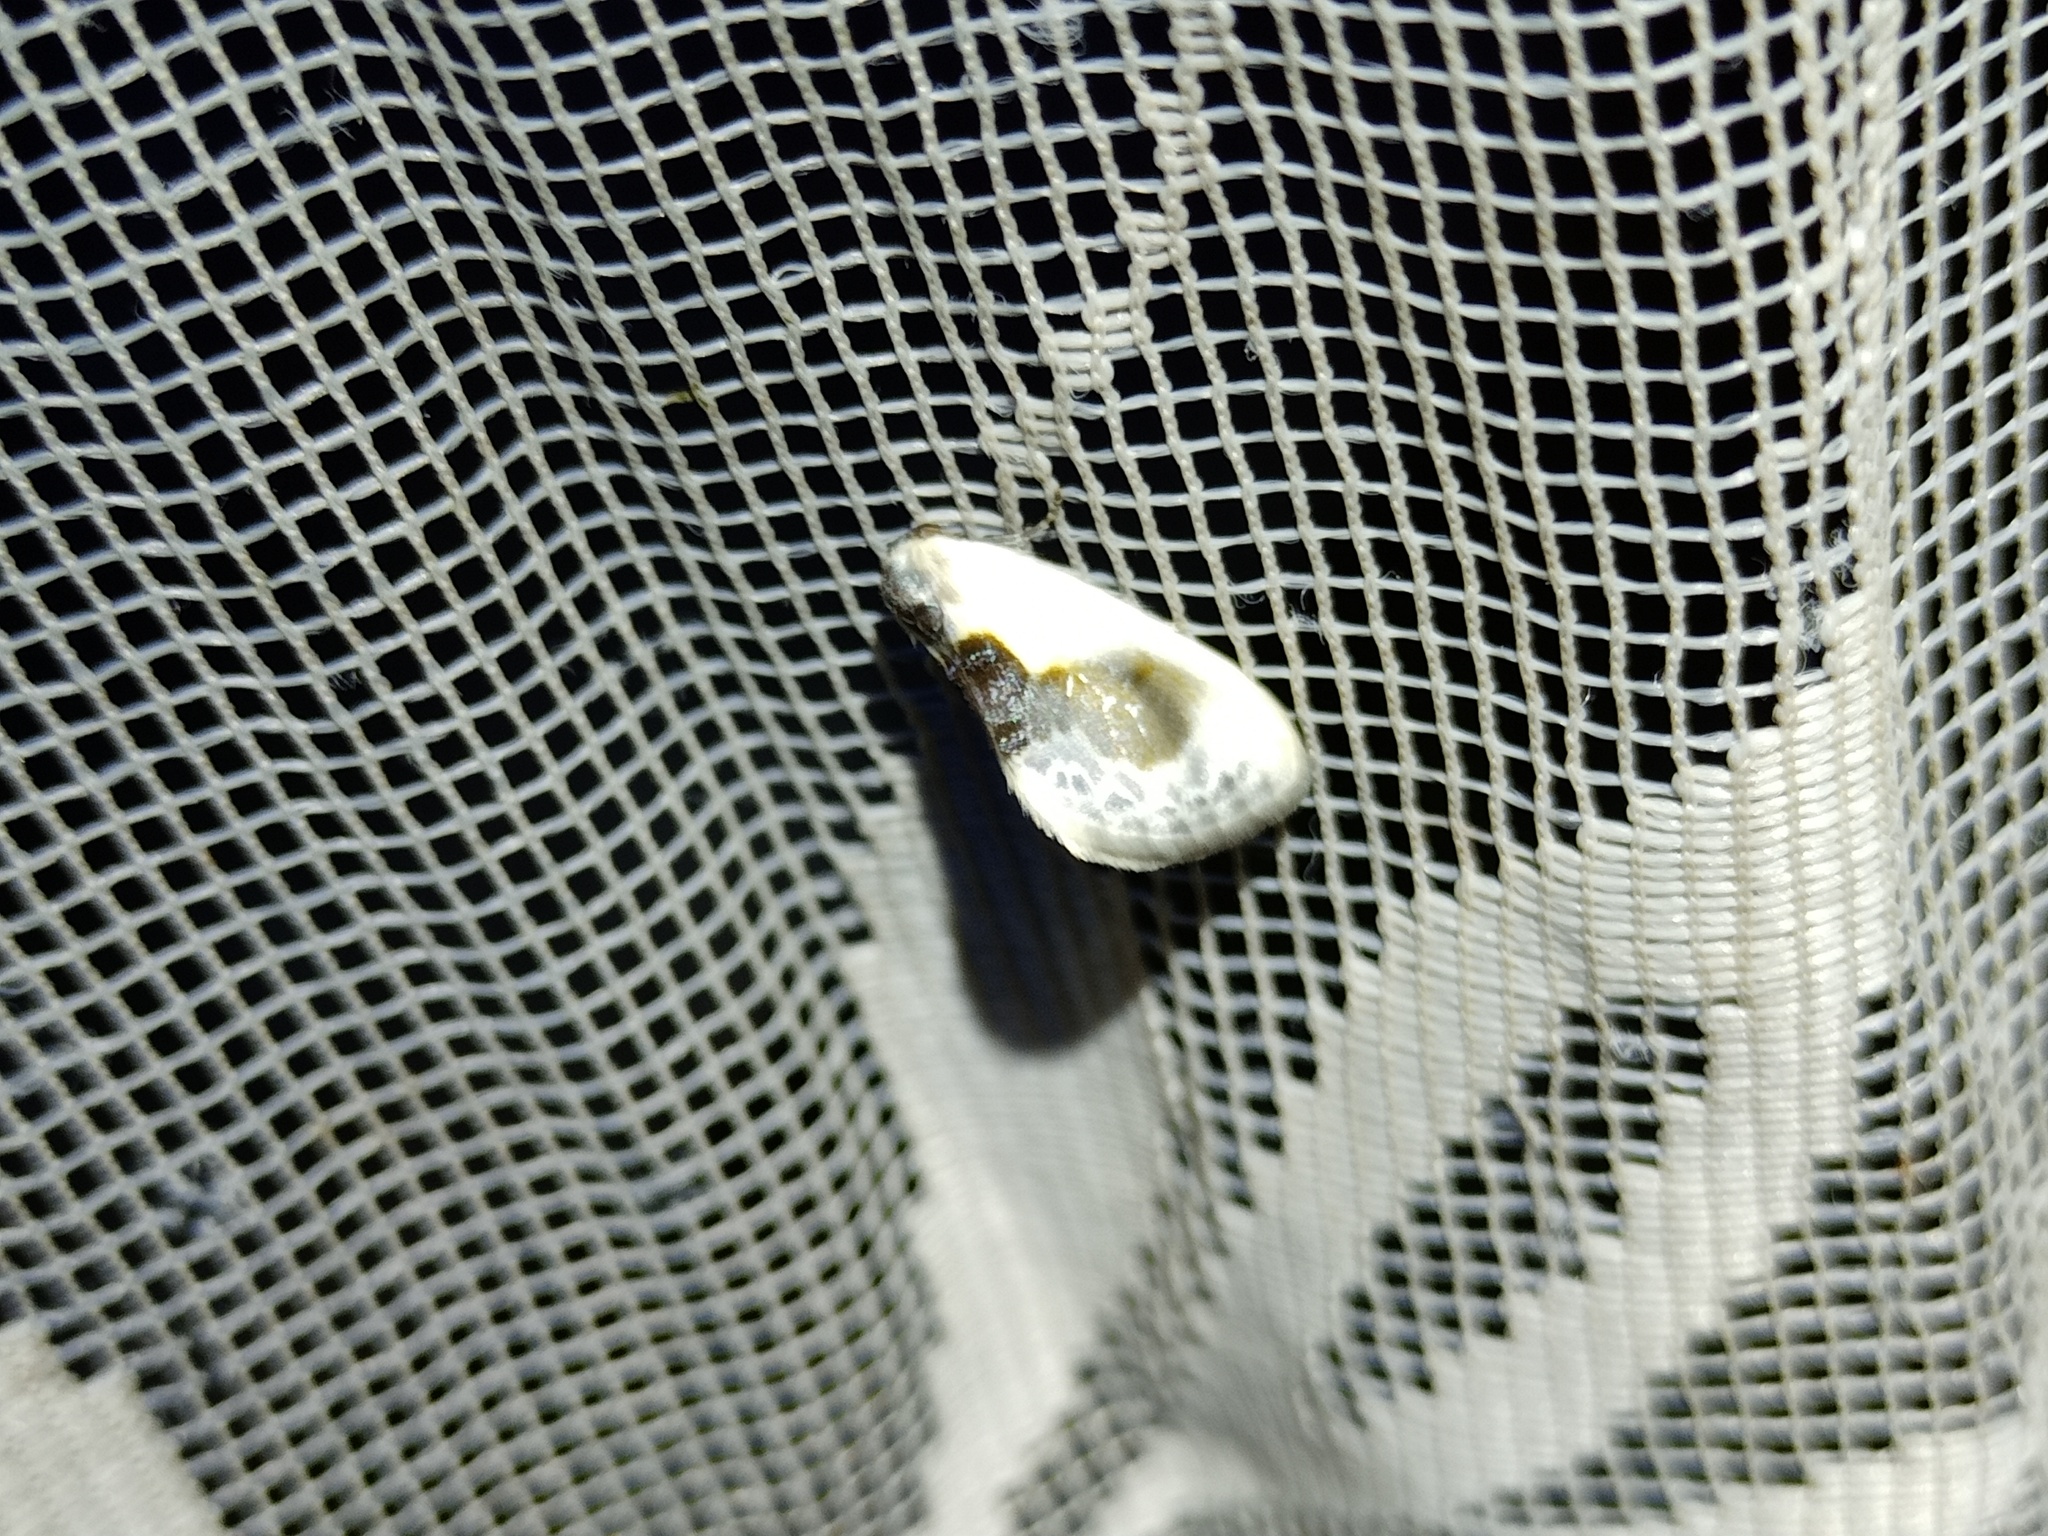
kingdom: Animalia
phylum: Arthropoda
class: Insecta
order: Lepidoptera
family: Drepanidae
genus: Cilix
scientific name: Cilix glaucata
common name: Chinese character
